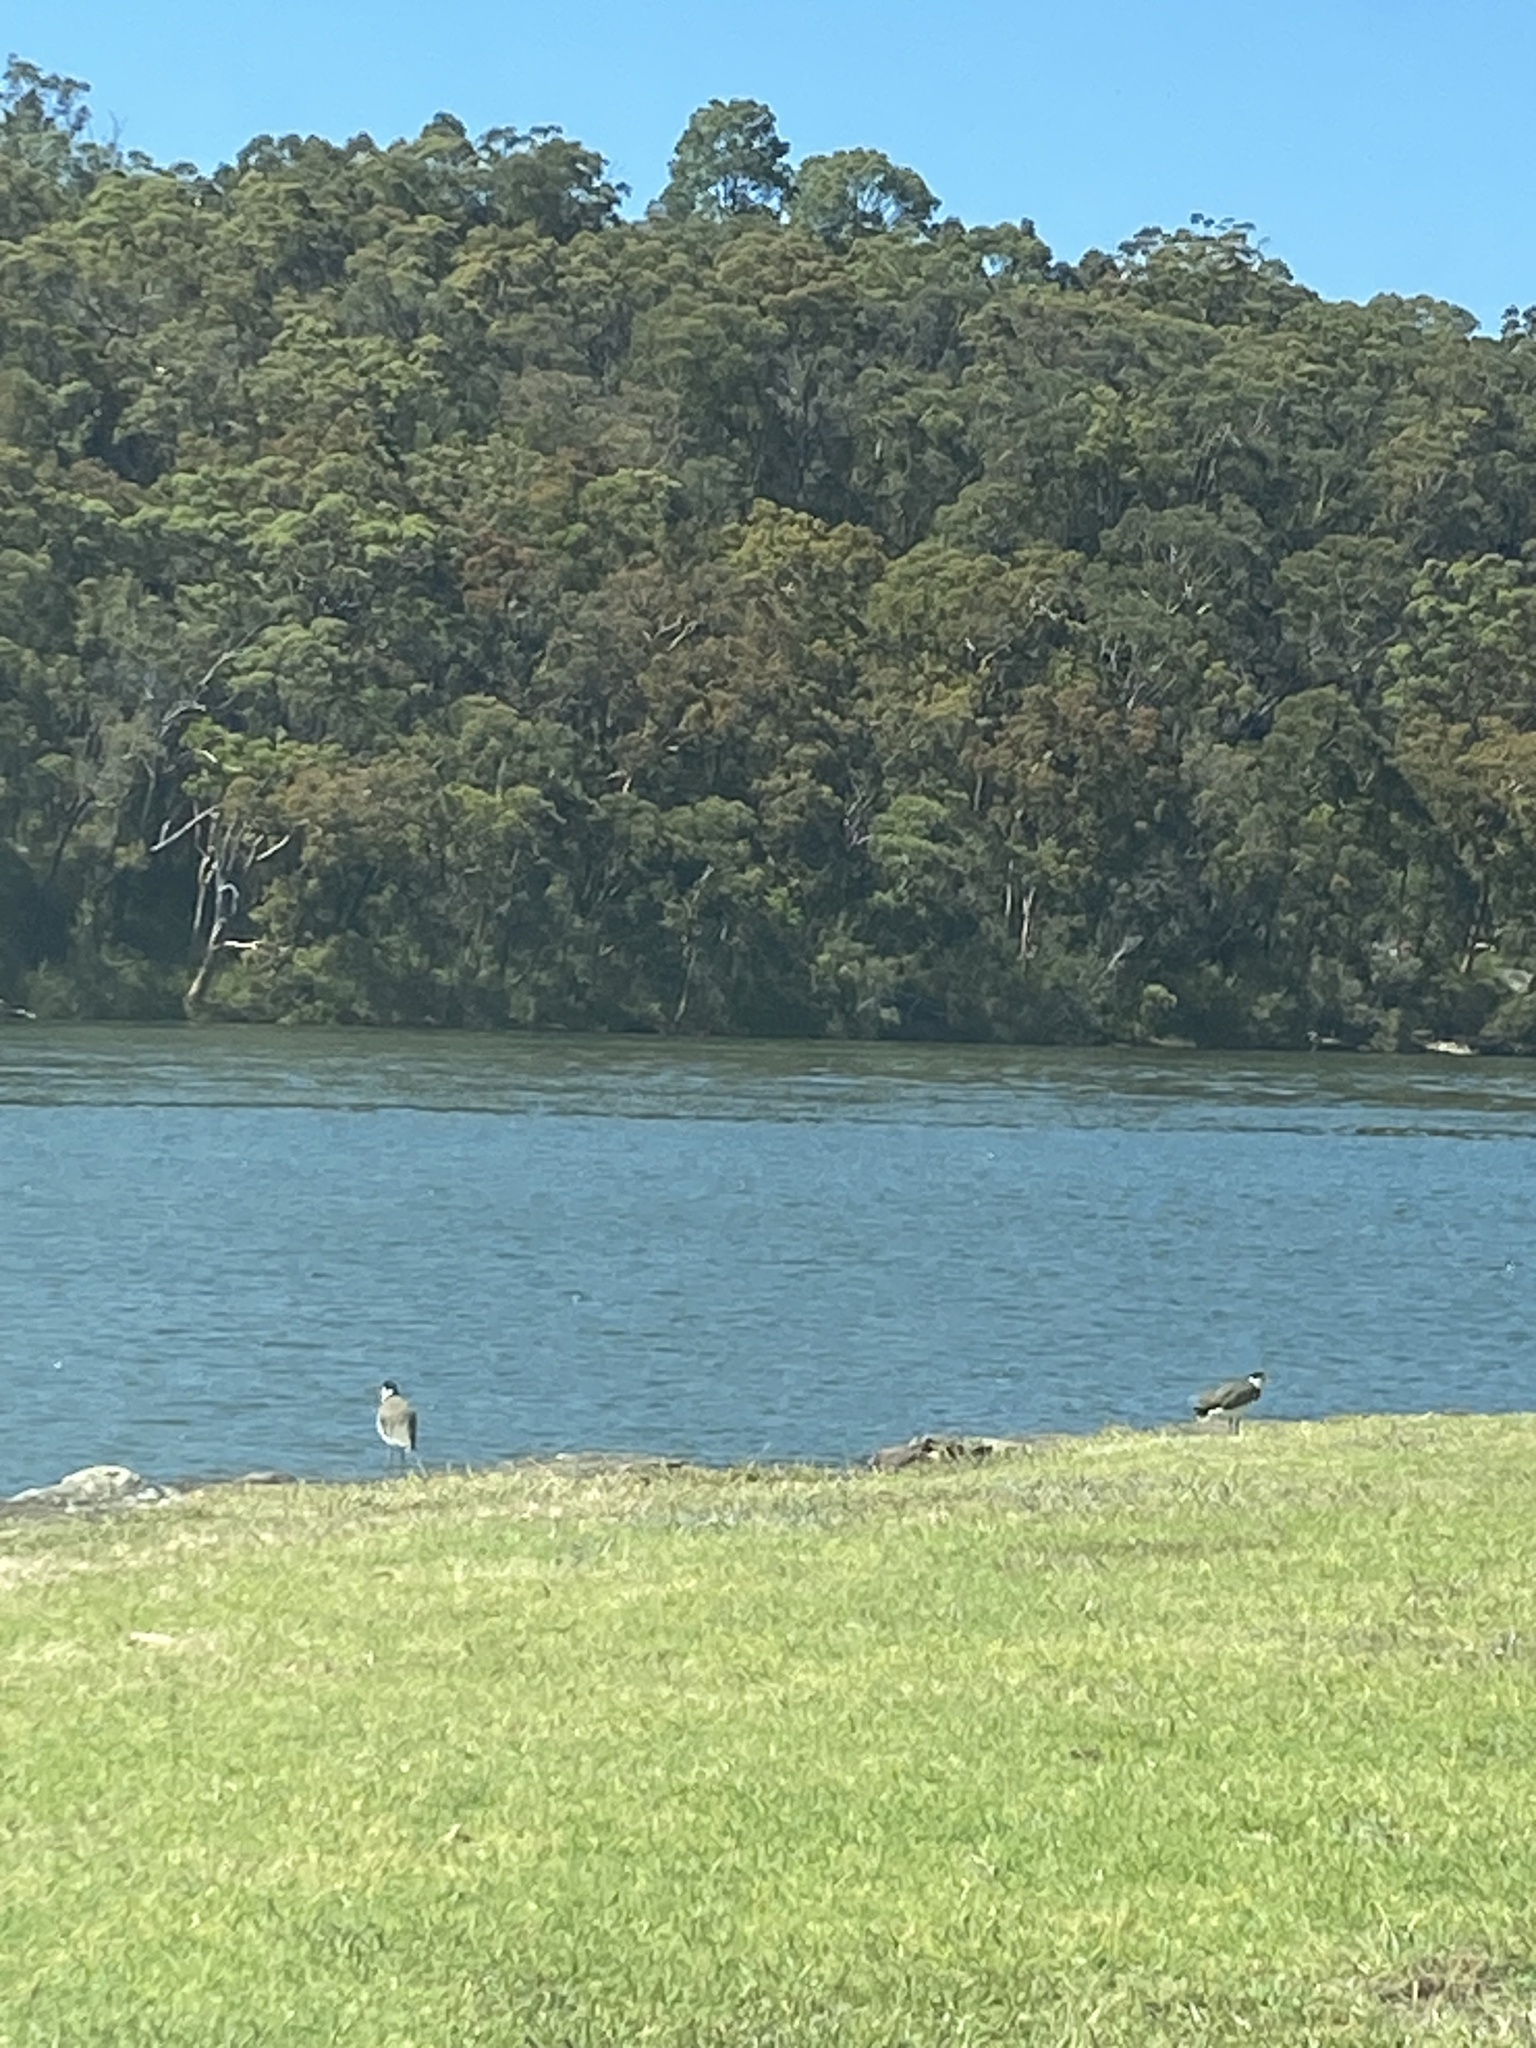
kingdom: Animalia
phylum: Chordata
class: Aves
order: Charadriiformes
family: Charadriidae
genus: Vanellus
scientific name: Vanellus miles
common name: Masked lapwing
